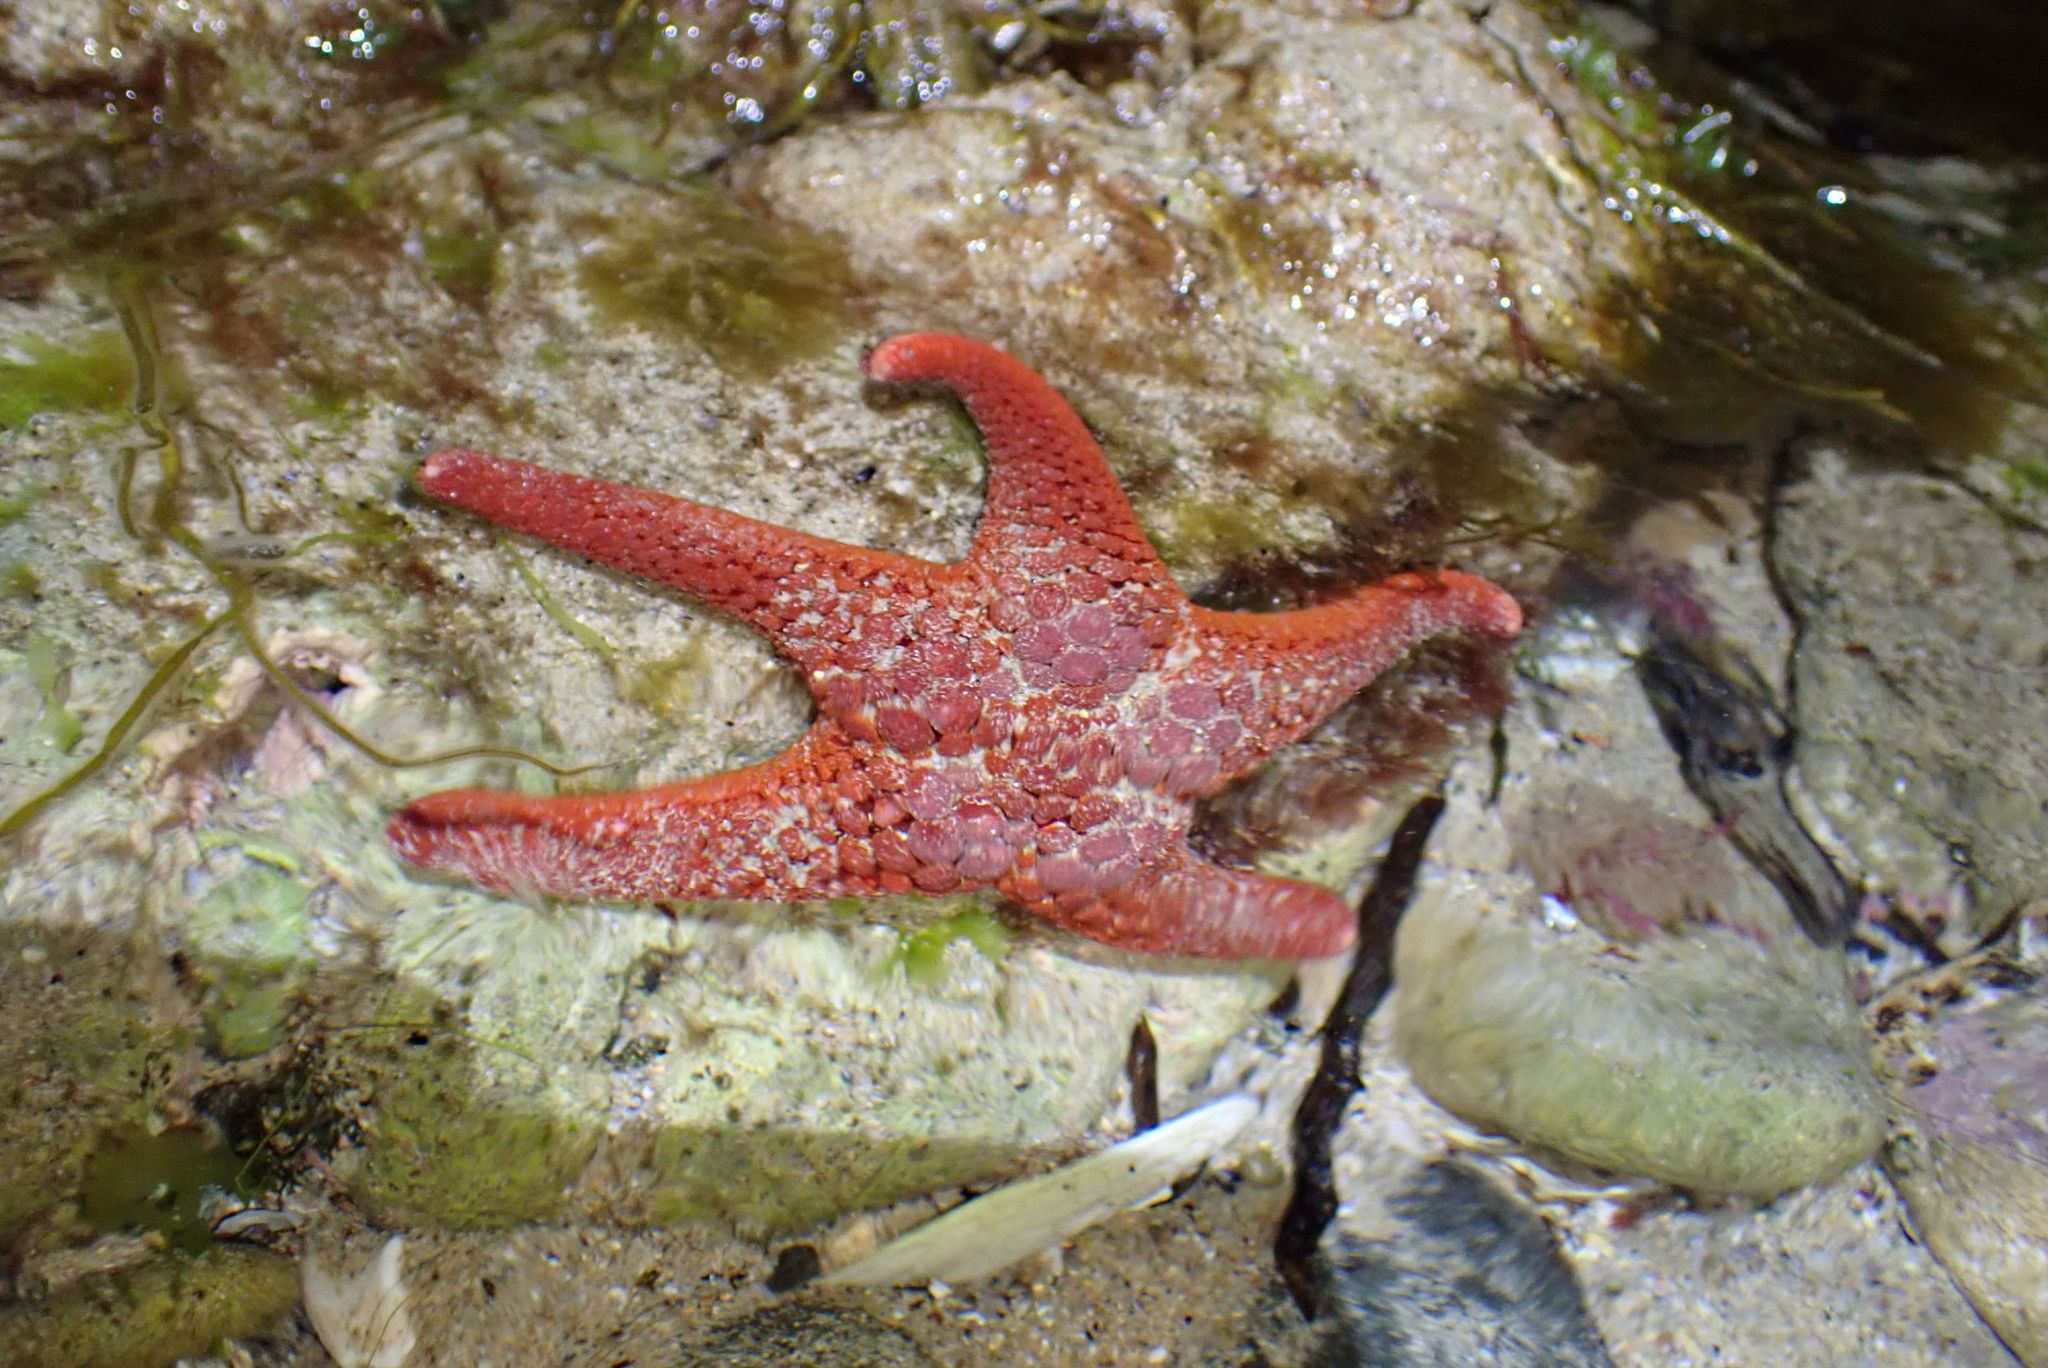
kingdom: Animalia
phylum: Echinodermata
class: Asteroidea
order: Valvatida
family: Goniasteridae
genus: Nectria
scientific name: Nectria ocellata
